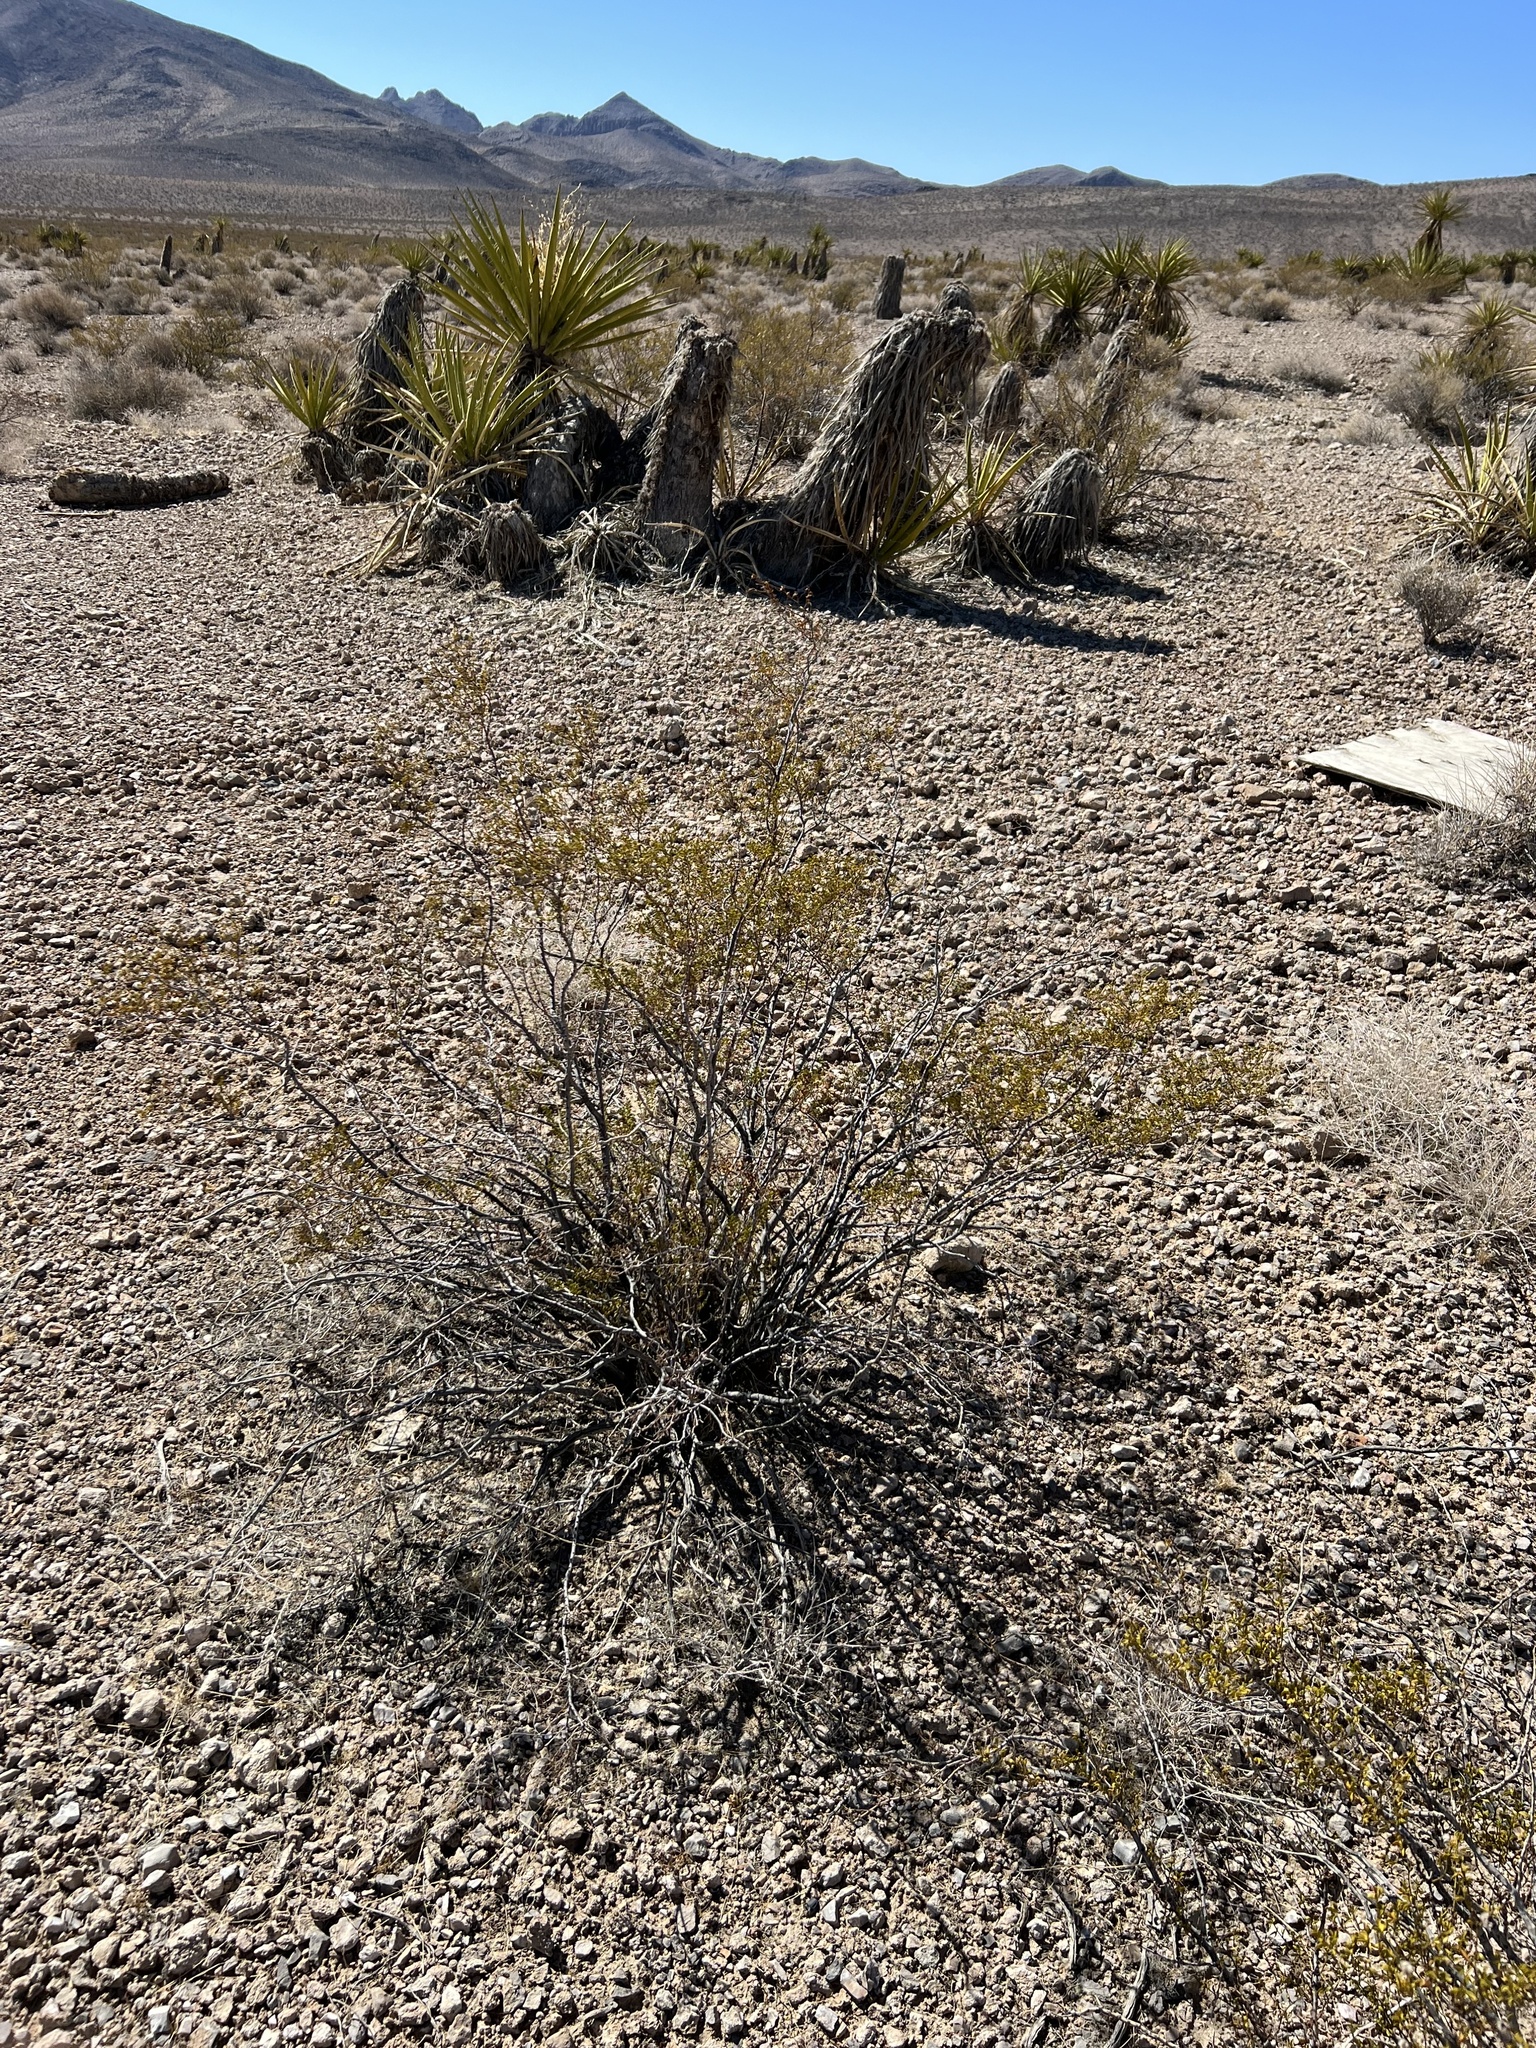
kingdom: Plantae
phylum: Tracheophyta
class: Magnoliopsida
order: Zygophyllales
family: Zygophyllaceae
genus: Larrea
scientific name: Larrea tridentata
